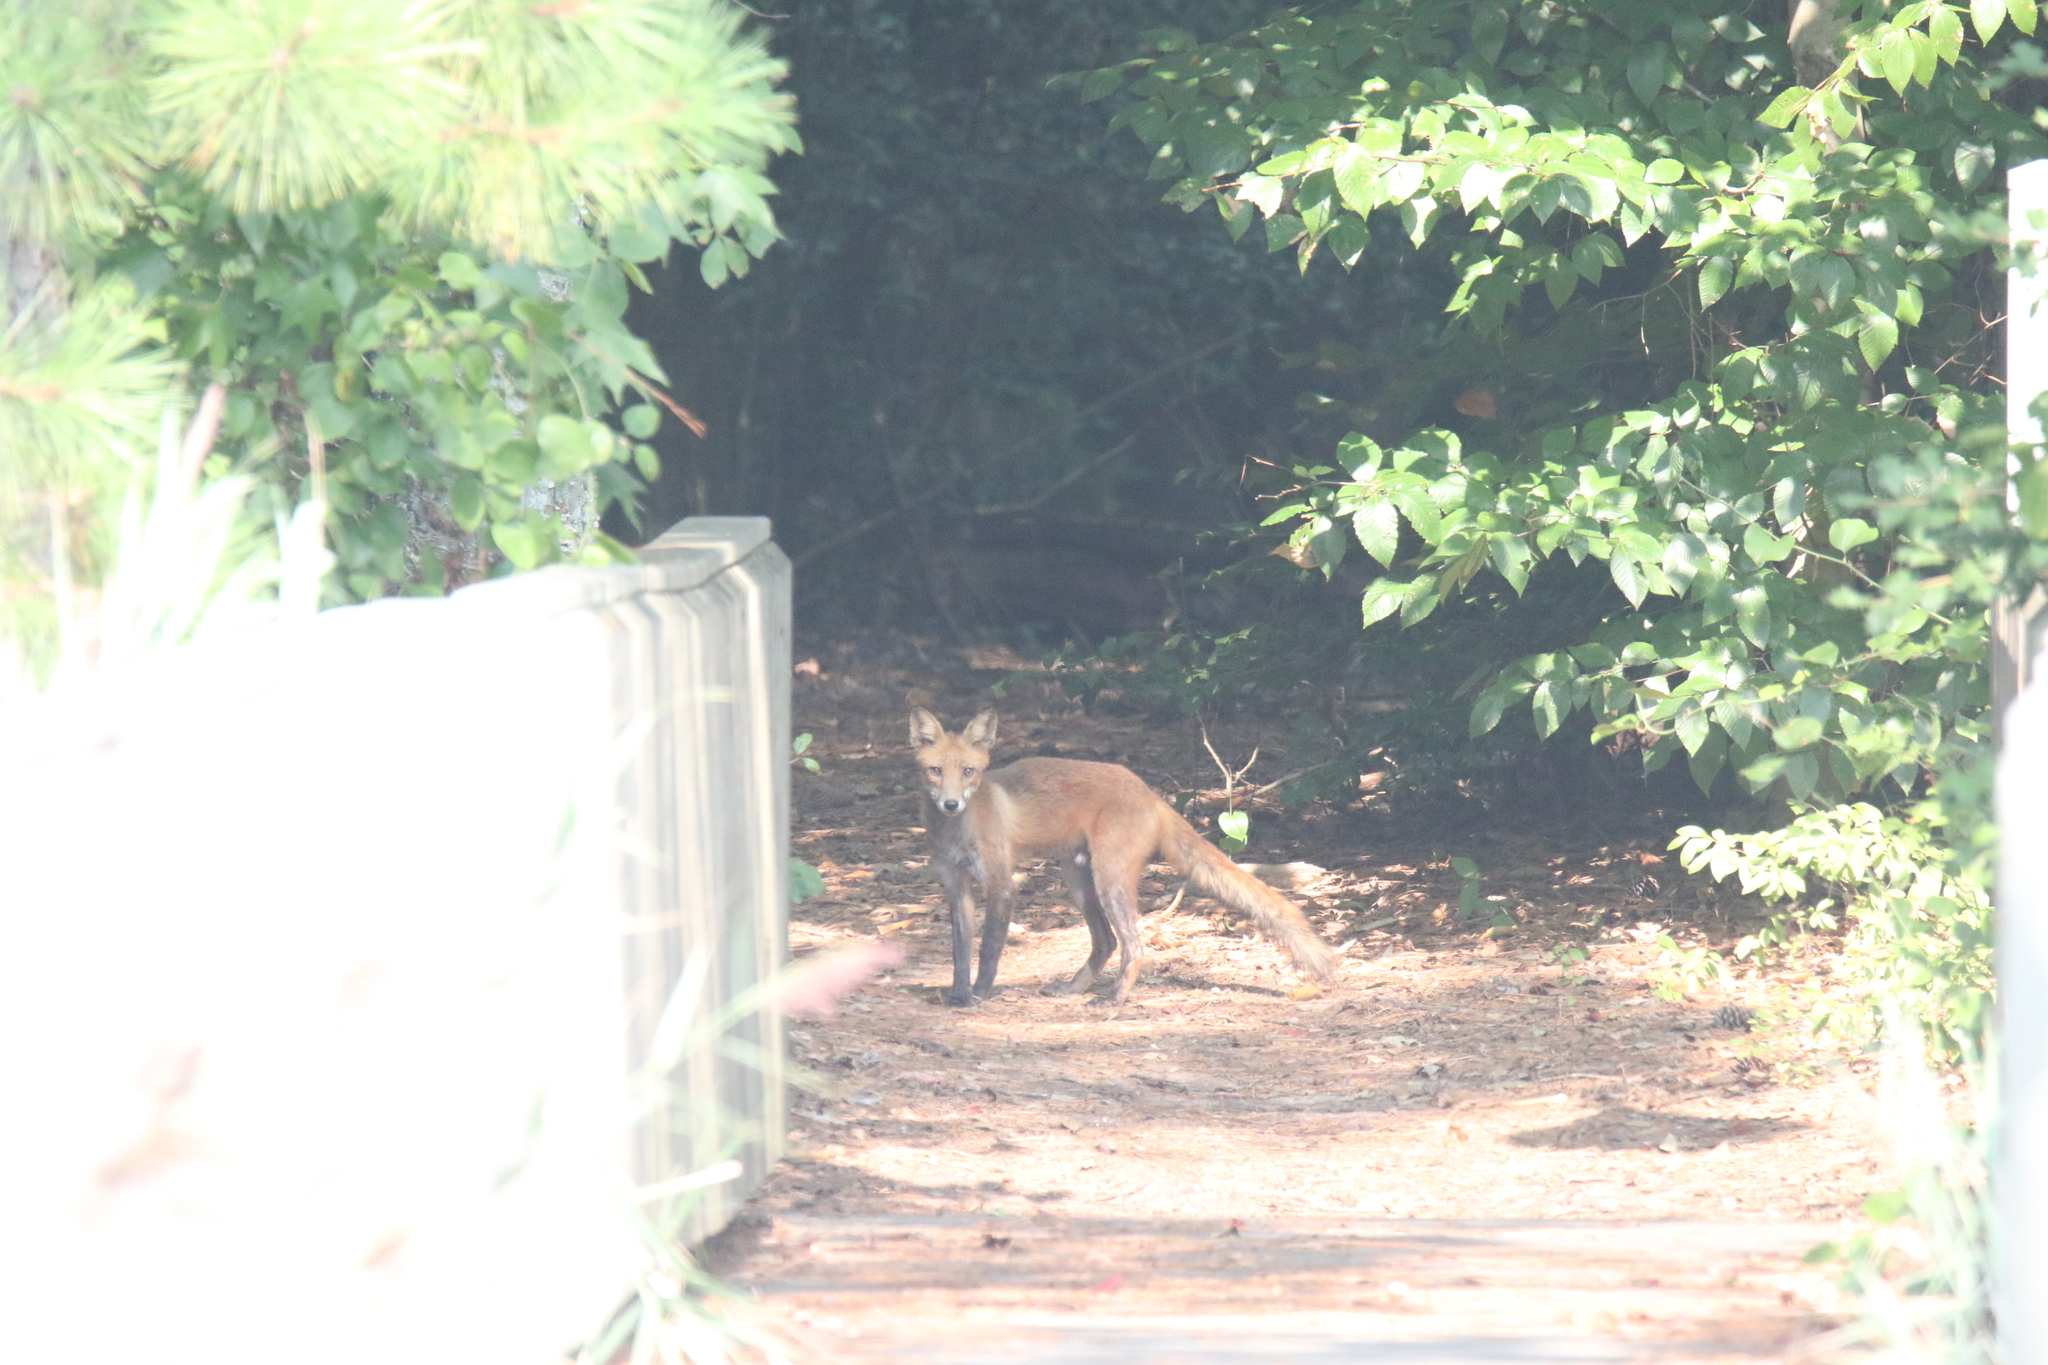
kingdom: Animalia
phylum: Chordata
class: Mammalia
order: Carnivora
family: Canidae
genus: Vulpes
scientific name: Vulpes vulpes
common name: Red fox
